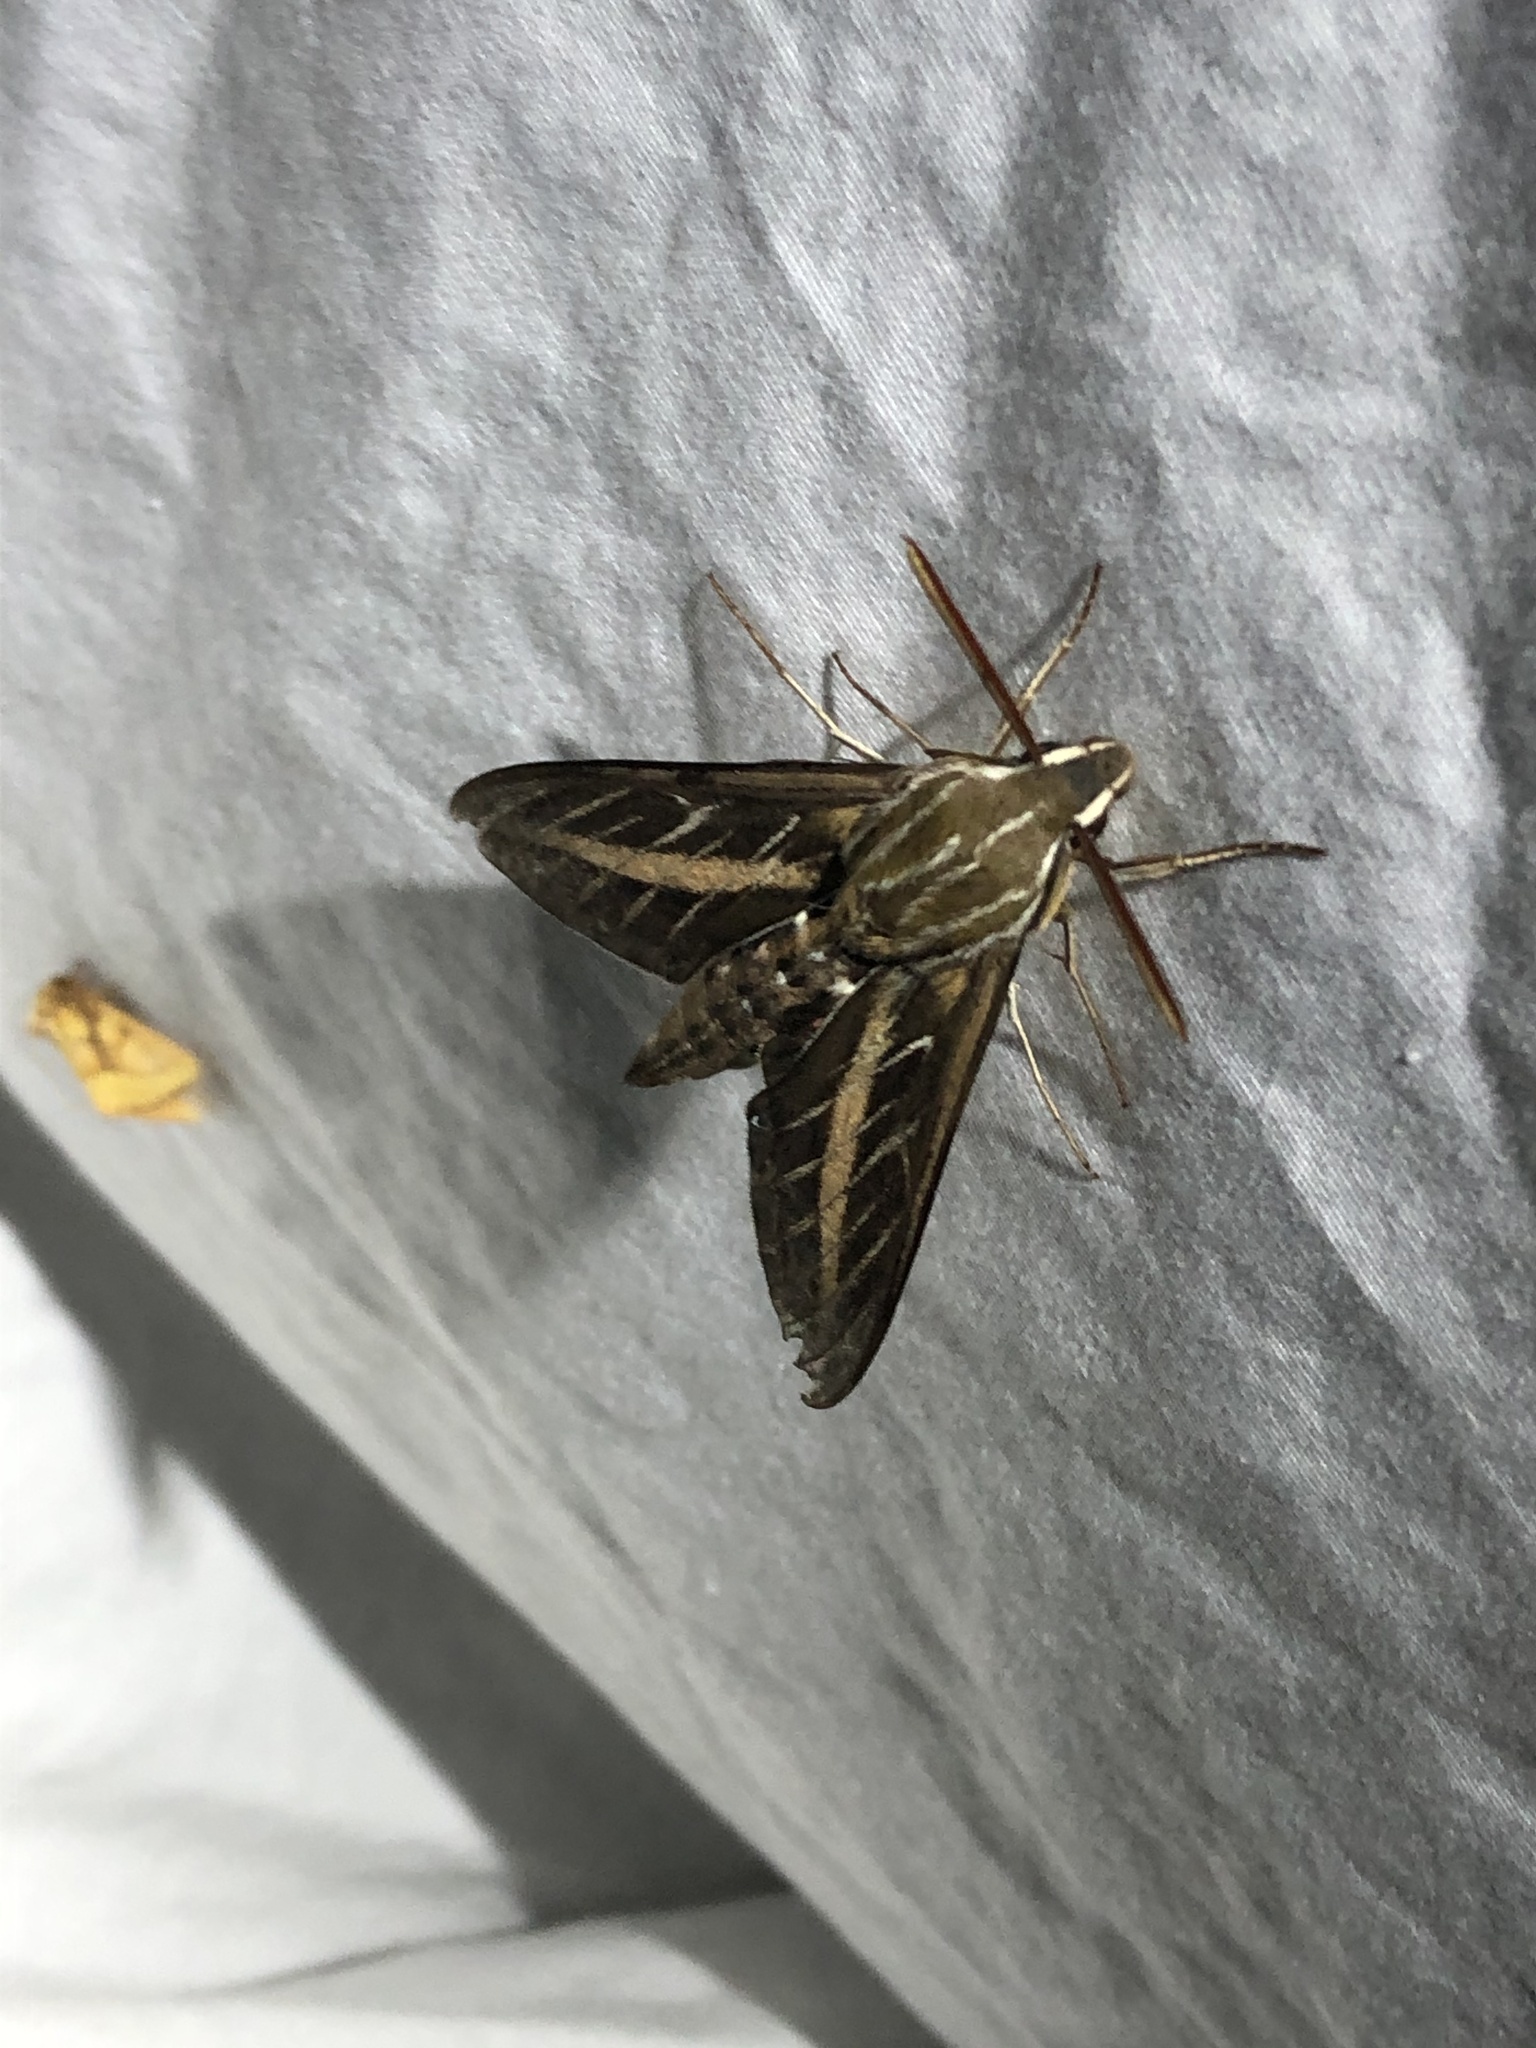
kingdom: Animalia
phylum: Arthropoda
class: Insecta
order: Lepidoptera
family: Sphingidae
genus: Hyles
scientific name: Hyles lineata
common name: White-lined sphinx
